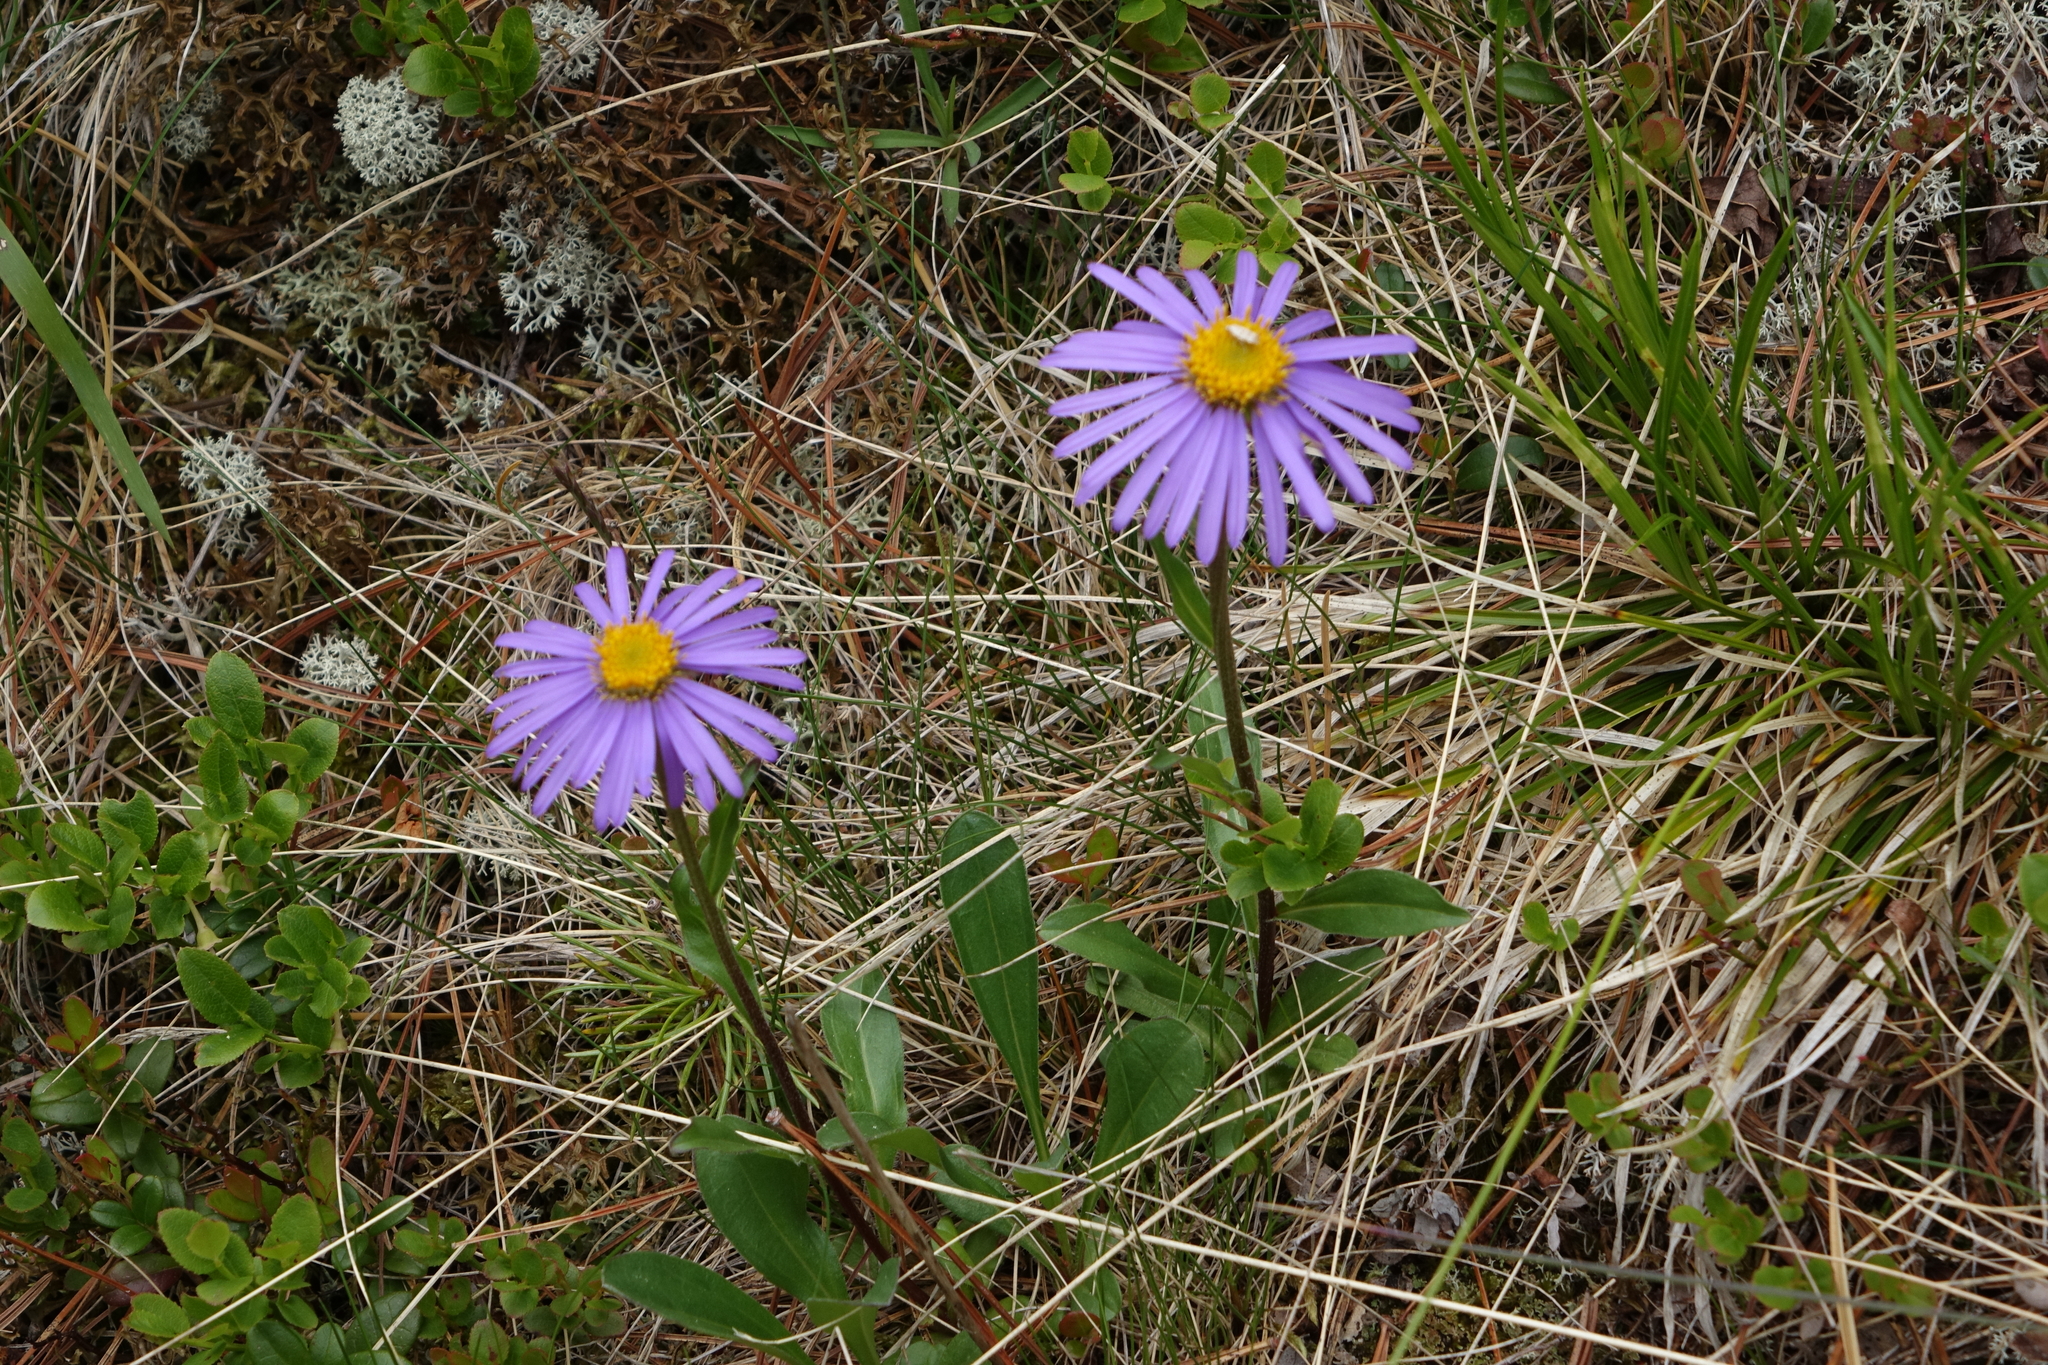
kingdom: Plantae
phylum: Tracheophyta
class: Magnoliopsida
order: Asterales
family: Asteraceae
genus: Aster
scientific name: Aster alpinus
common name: Alpine aster
